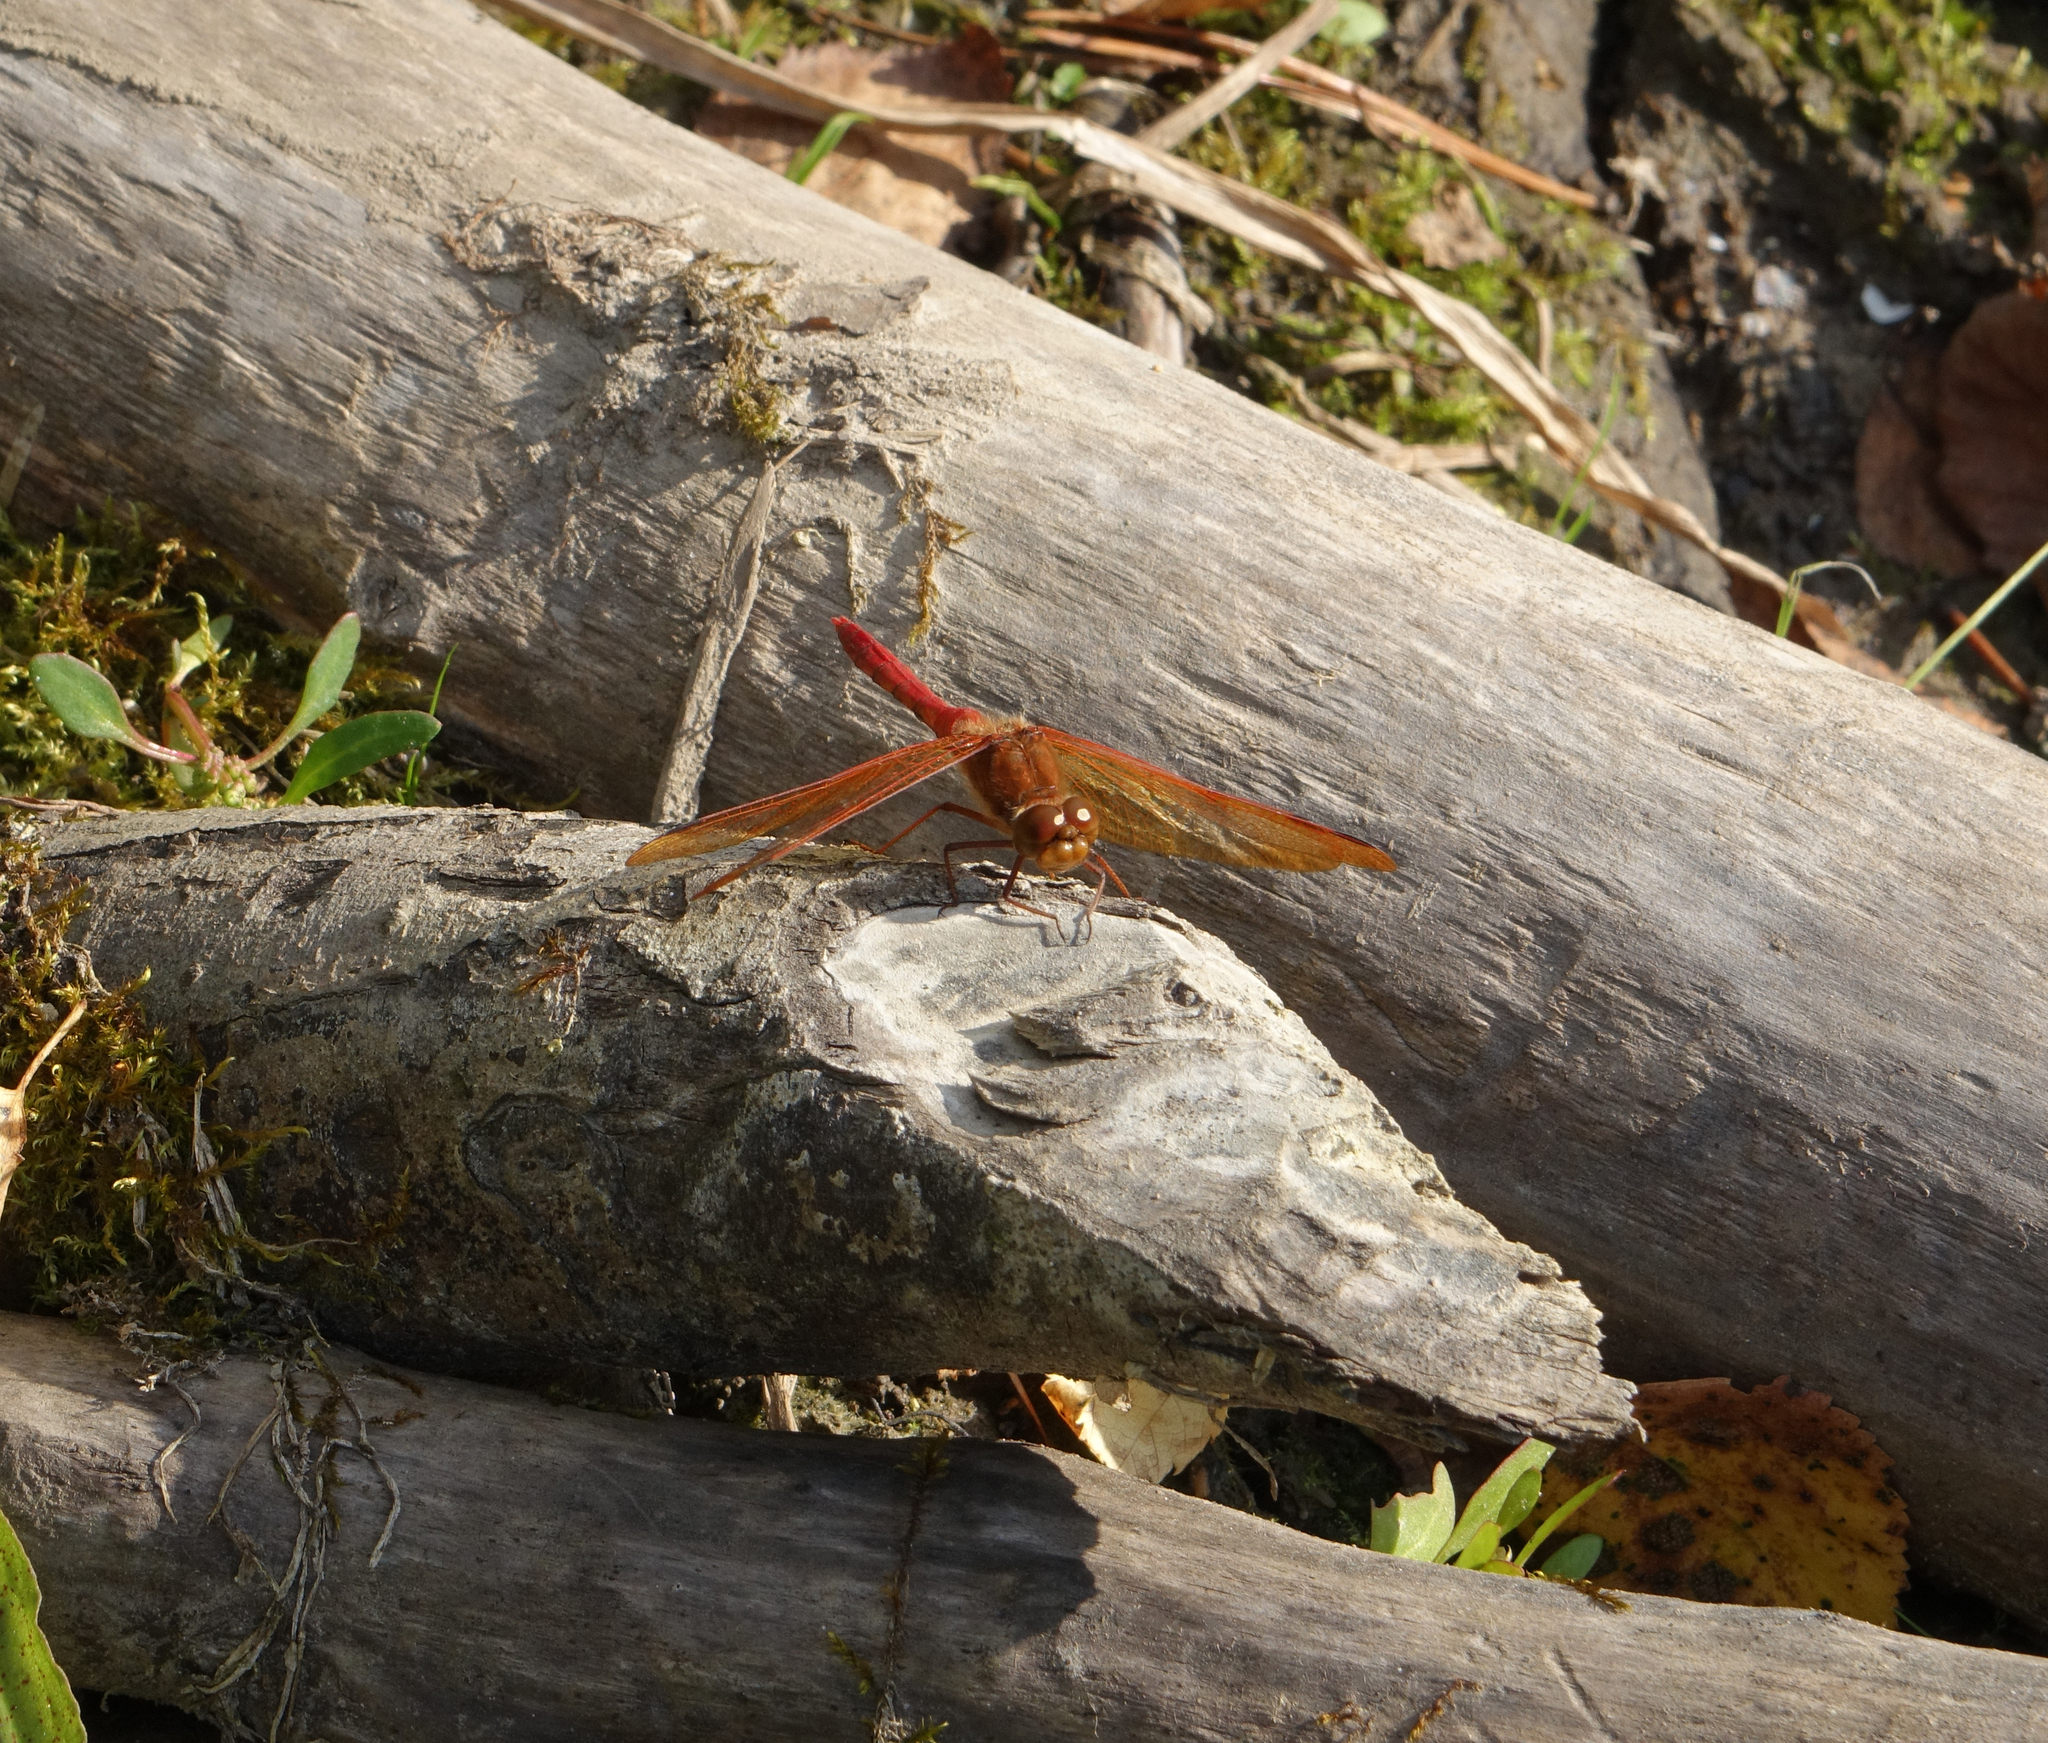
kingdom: Animalia
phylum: Arthropoda
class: Insecta
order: Odonata
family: Libellulidae
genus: Sympetrum
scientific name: Sympetrum croceolum
